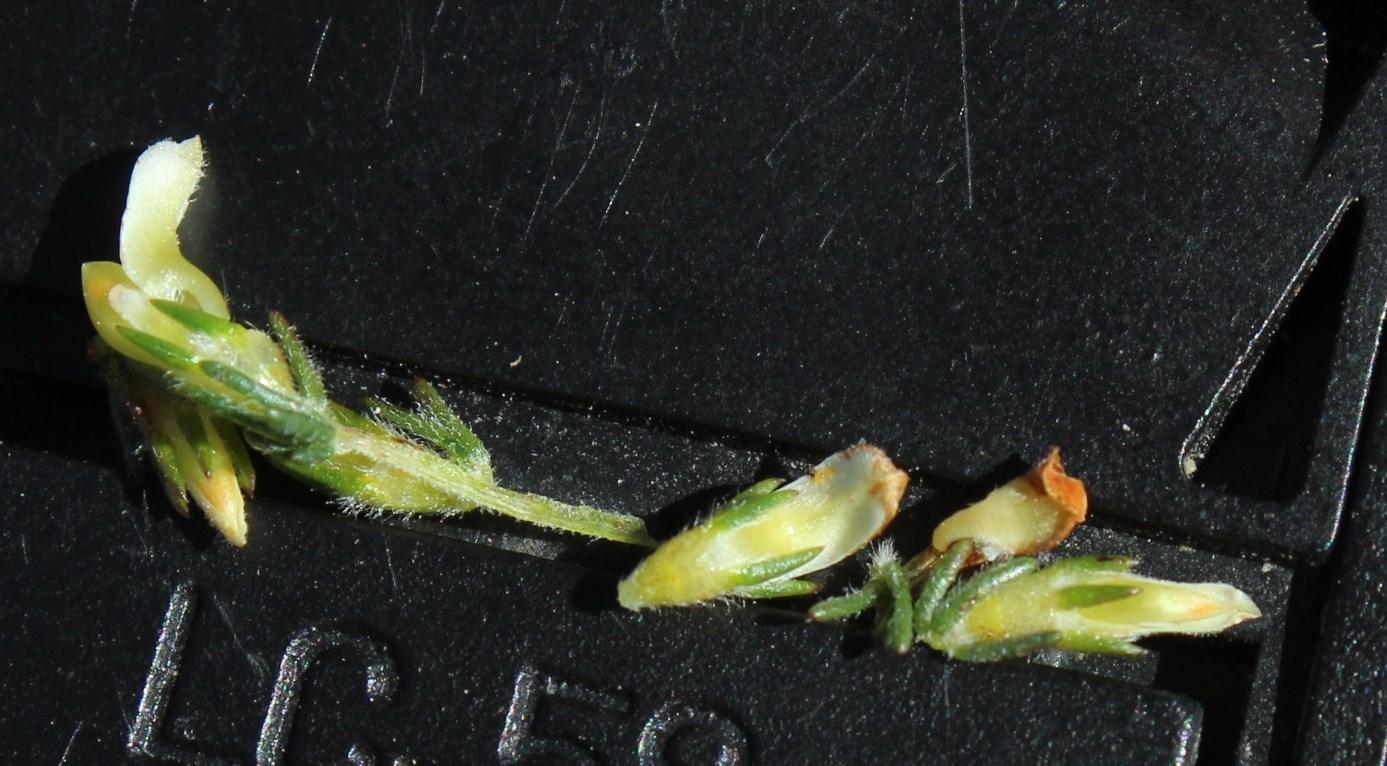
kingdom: Plantae
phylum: Tracheophyta
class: Magnoliopsida
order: Fabales
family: Fabaceae
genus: Aspalathus
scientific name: Aspalathus hispida
